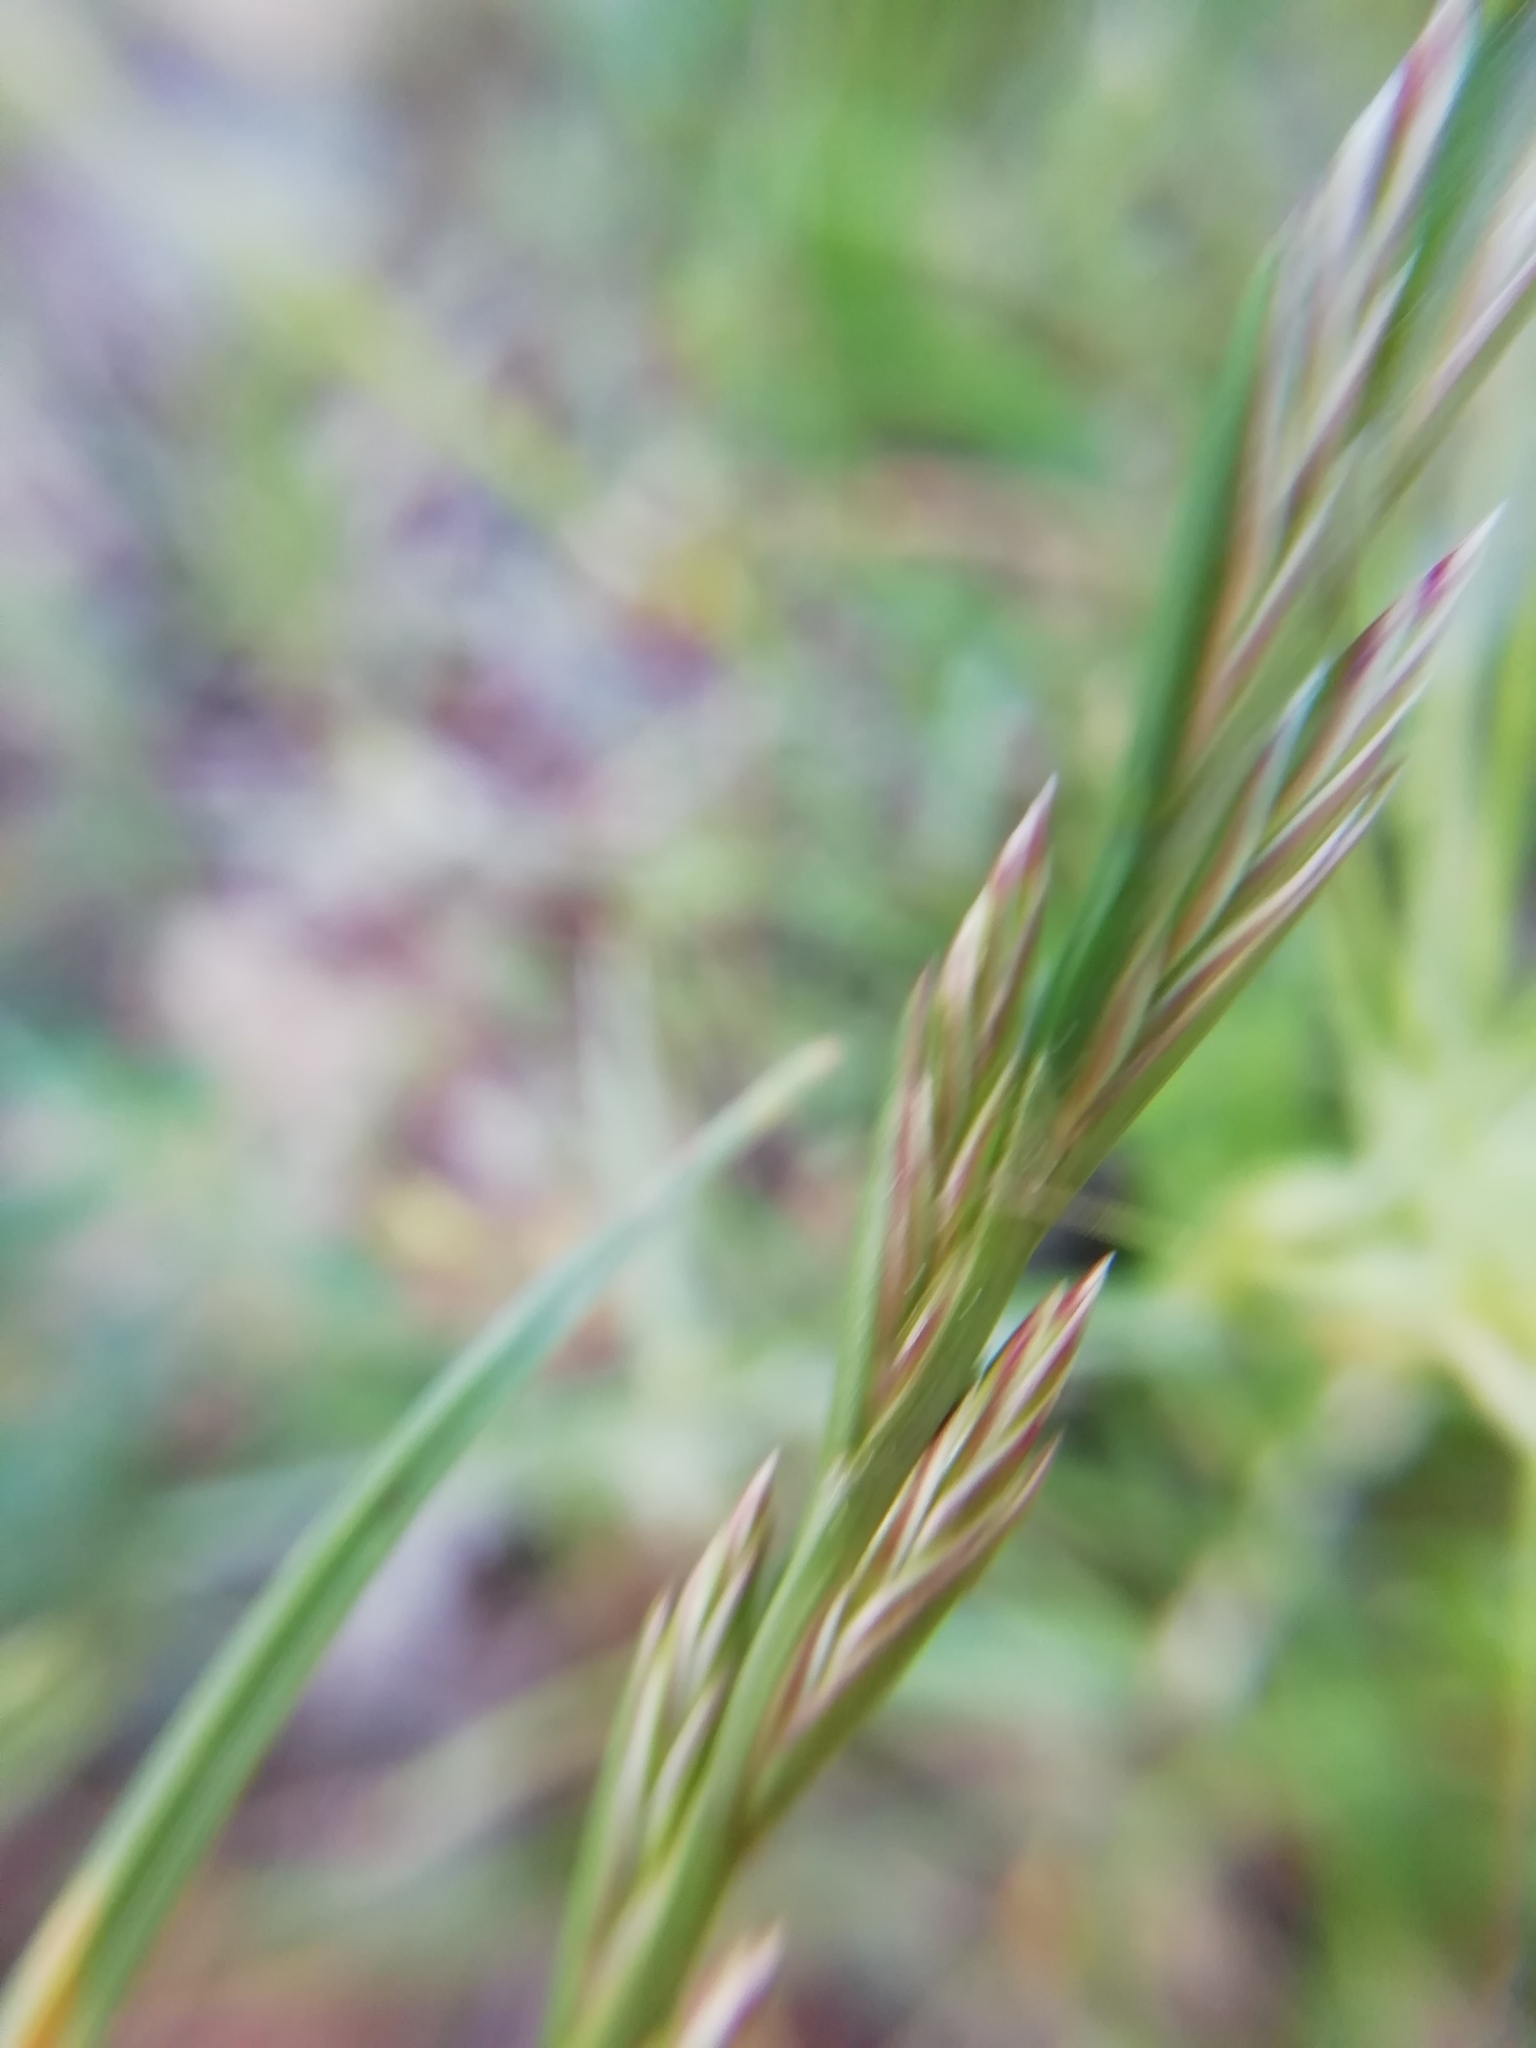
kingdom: Plantae
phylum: Tracheophyta
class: Liliopsida
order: Poales
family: Poaceae
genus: Lolium
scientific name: Lolium perenne
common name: Perennial ryegrass
